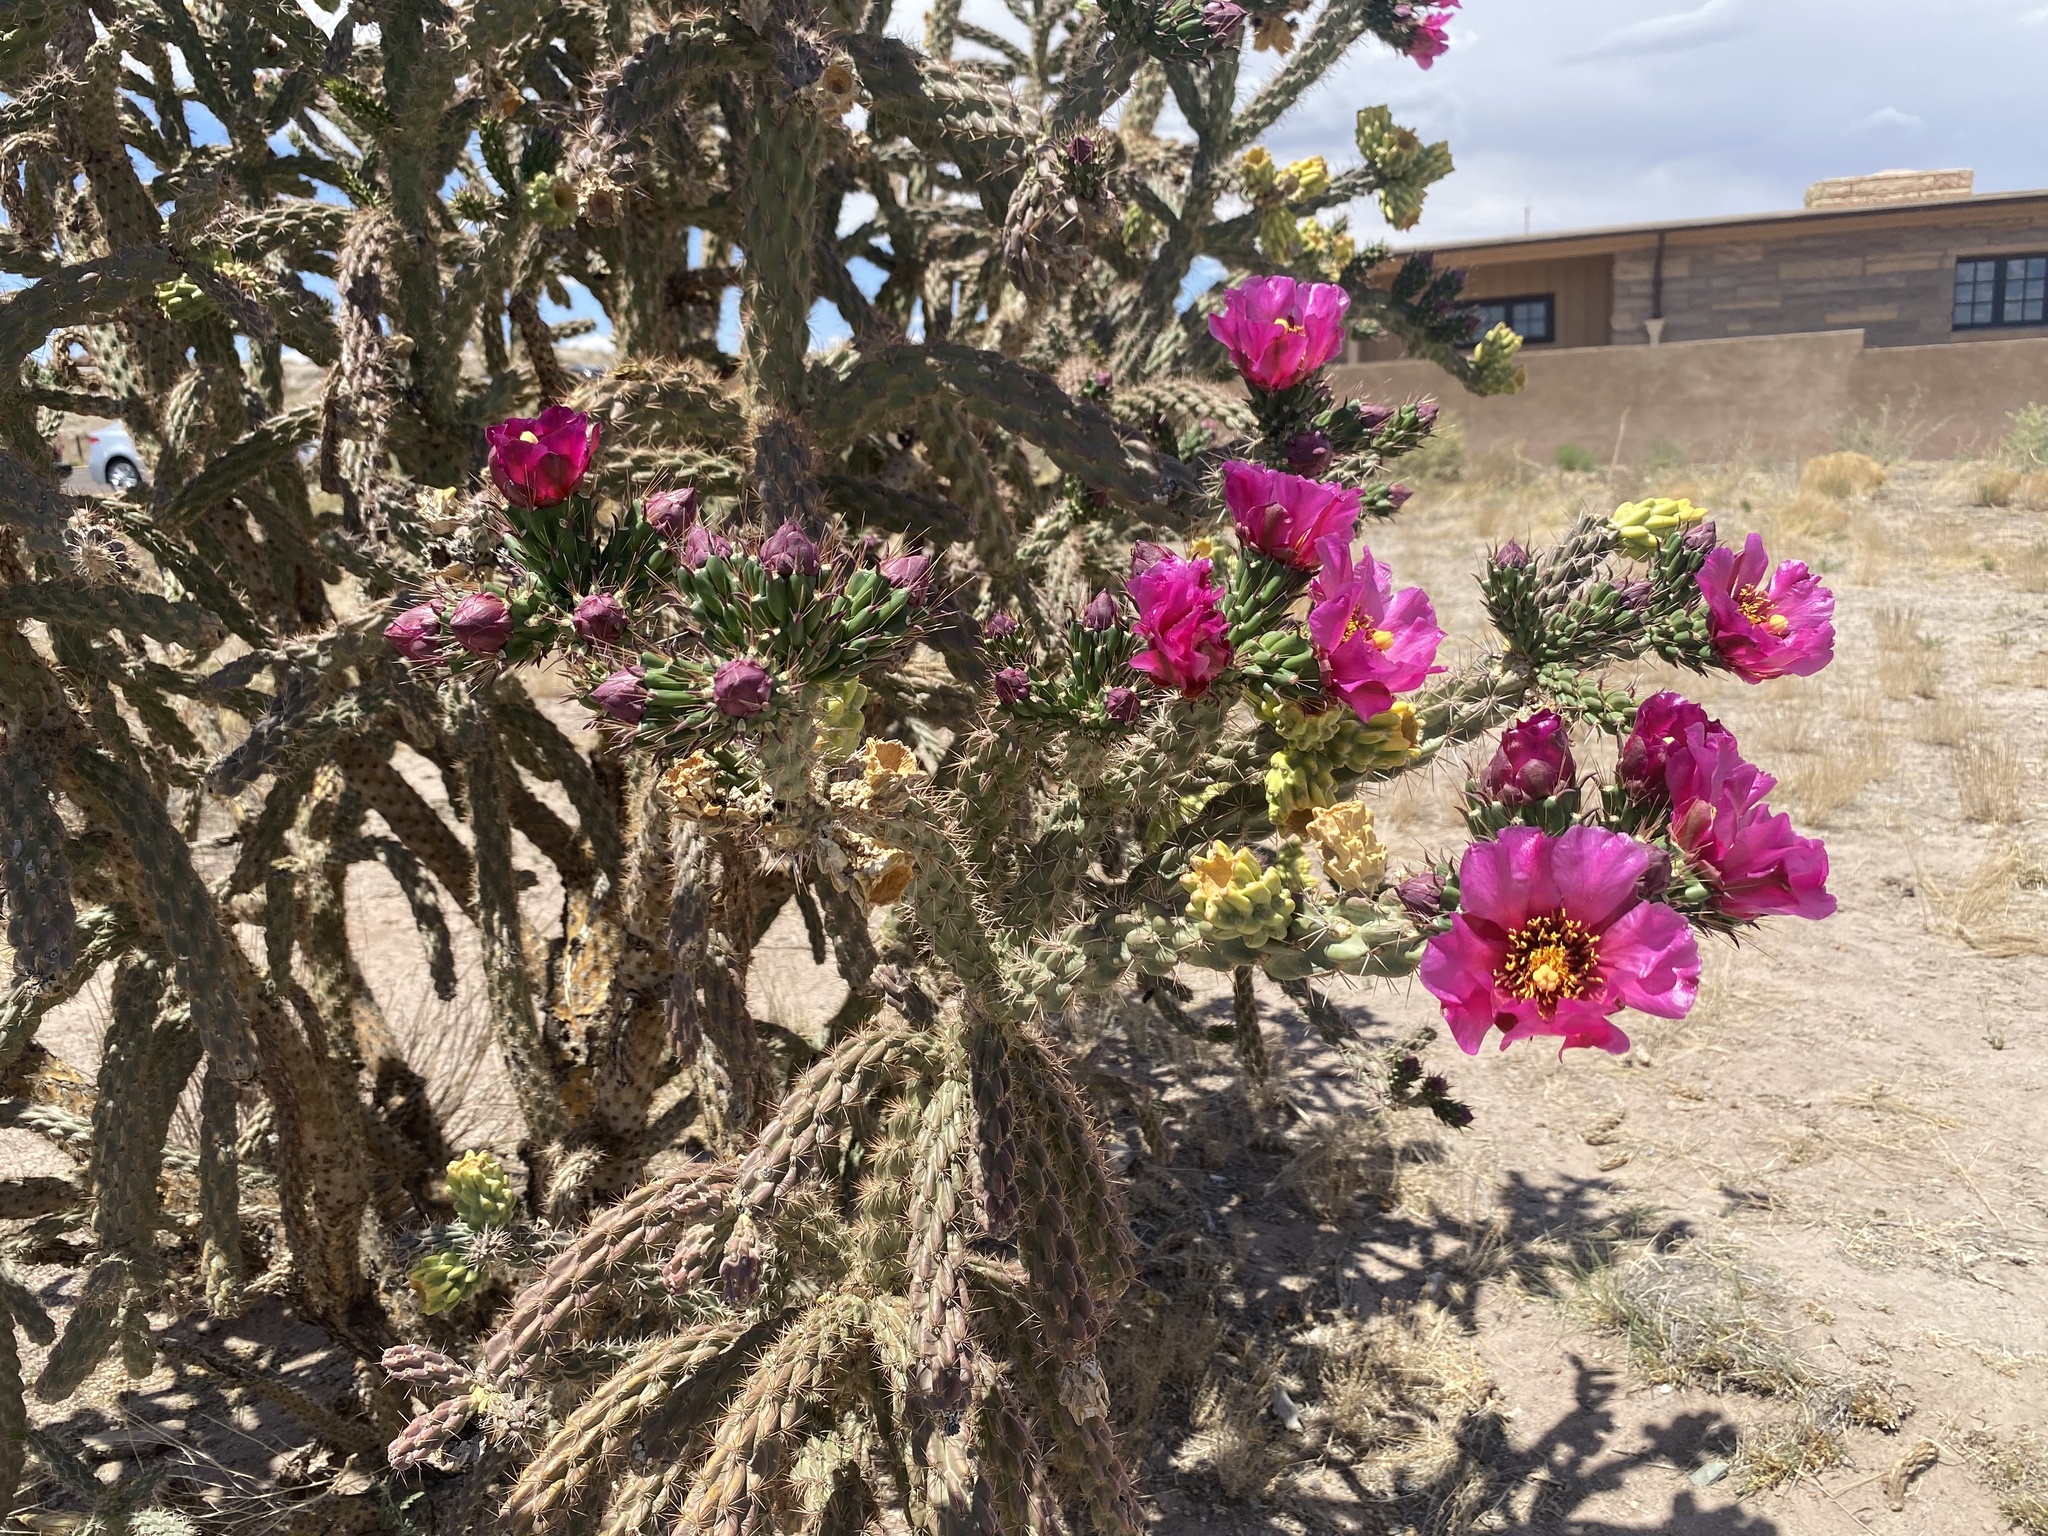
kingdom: Plantae
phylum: Tracheophyta
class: Magnoliopsida
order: Caryophyllales
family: Cactaceae
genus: Cylindropuntia
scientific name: Cylindropuntia imbricata
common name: Candelabrum cactus
